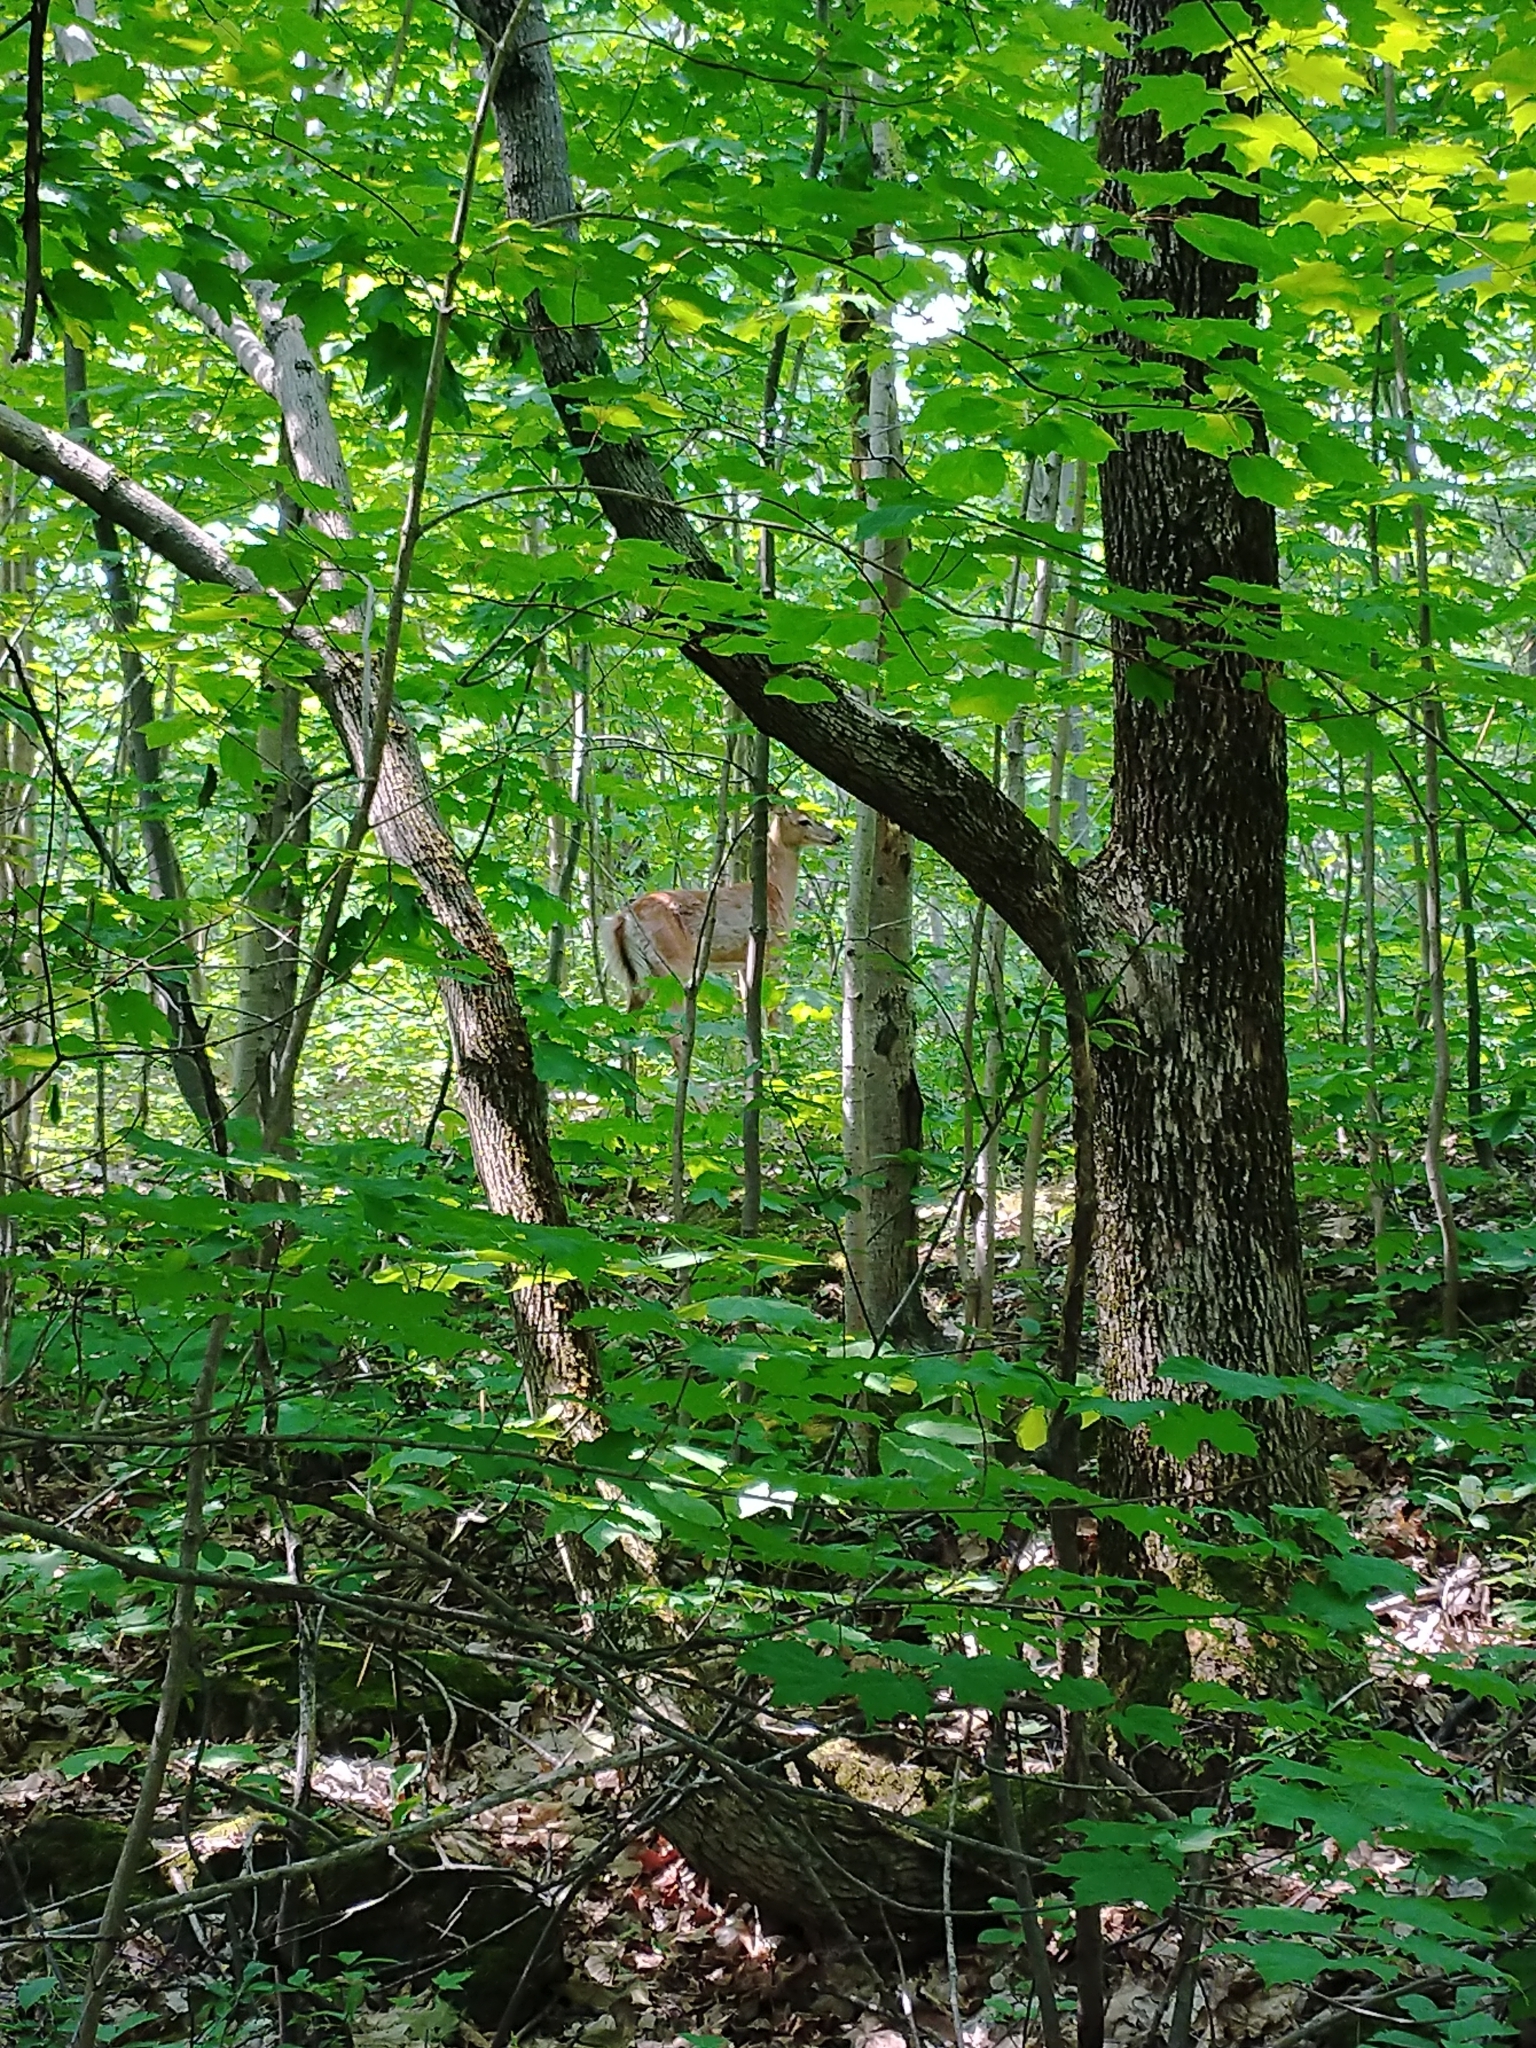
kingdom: Animalia
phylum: Chordata
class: Mammalia
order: Artiodactyla
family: Cervidae
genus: Odocoileus
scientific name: Odocoileus virginianus
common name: White-tailed deer
